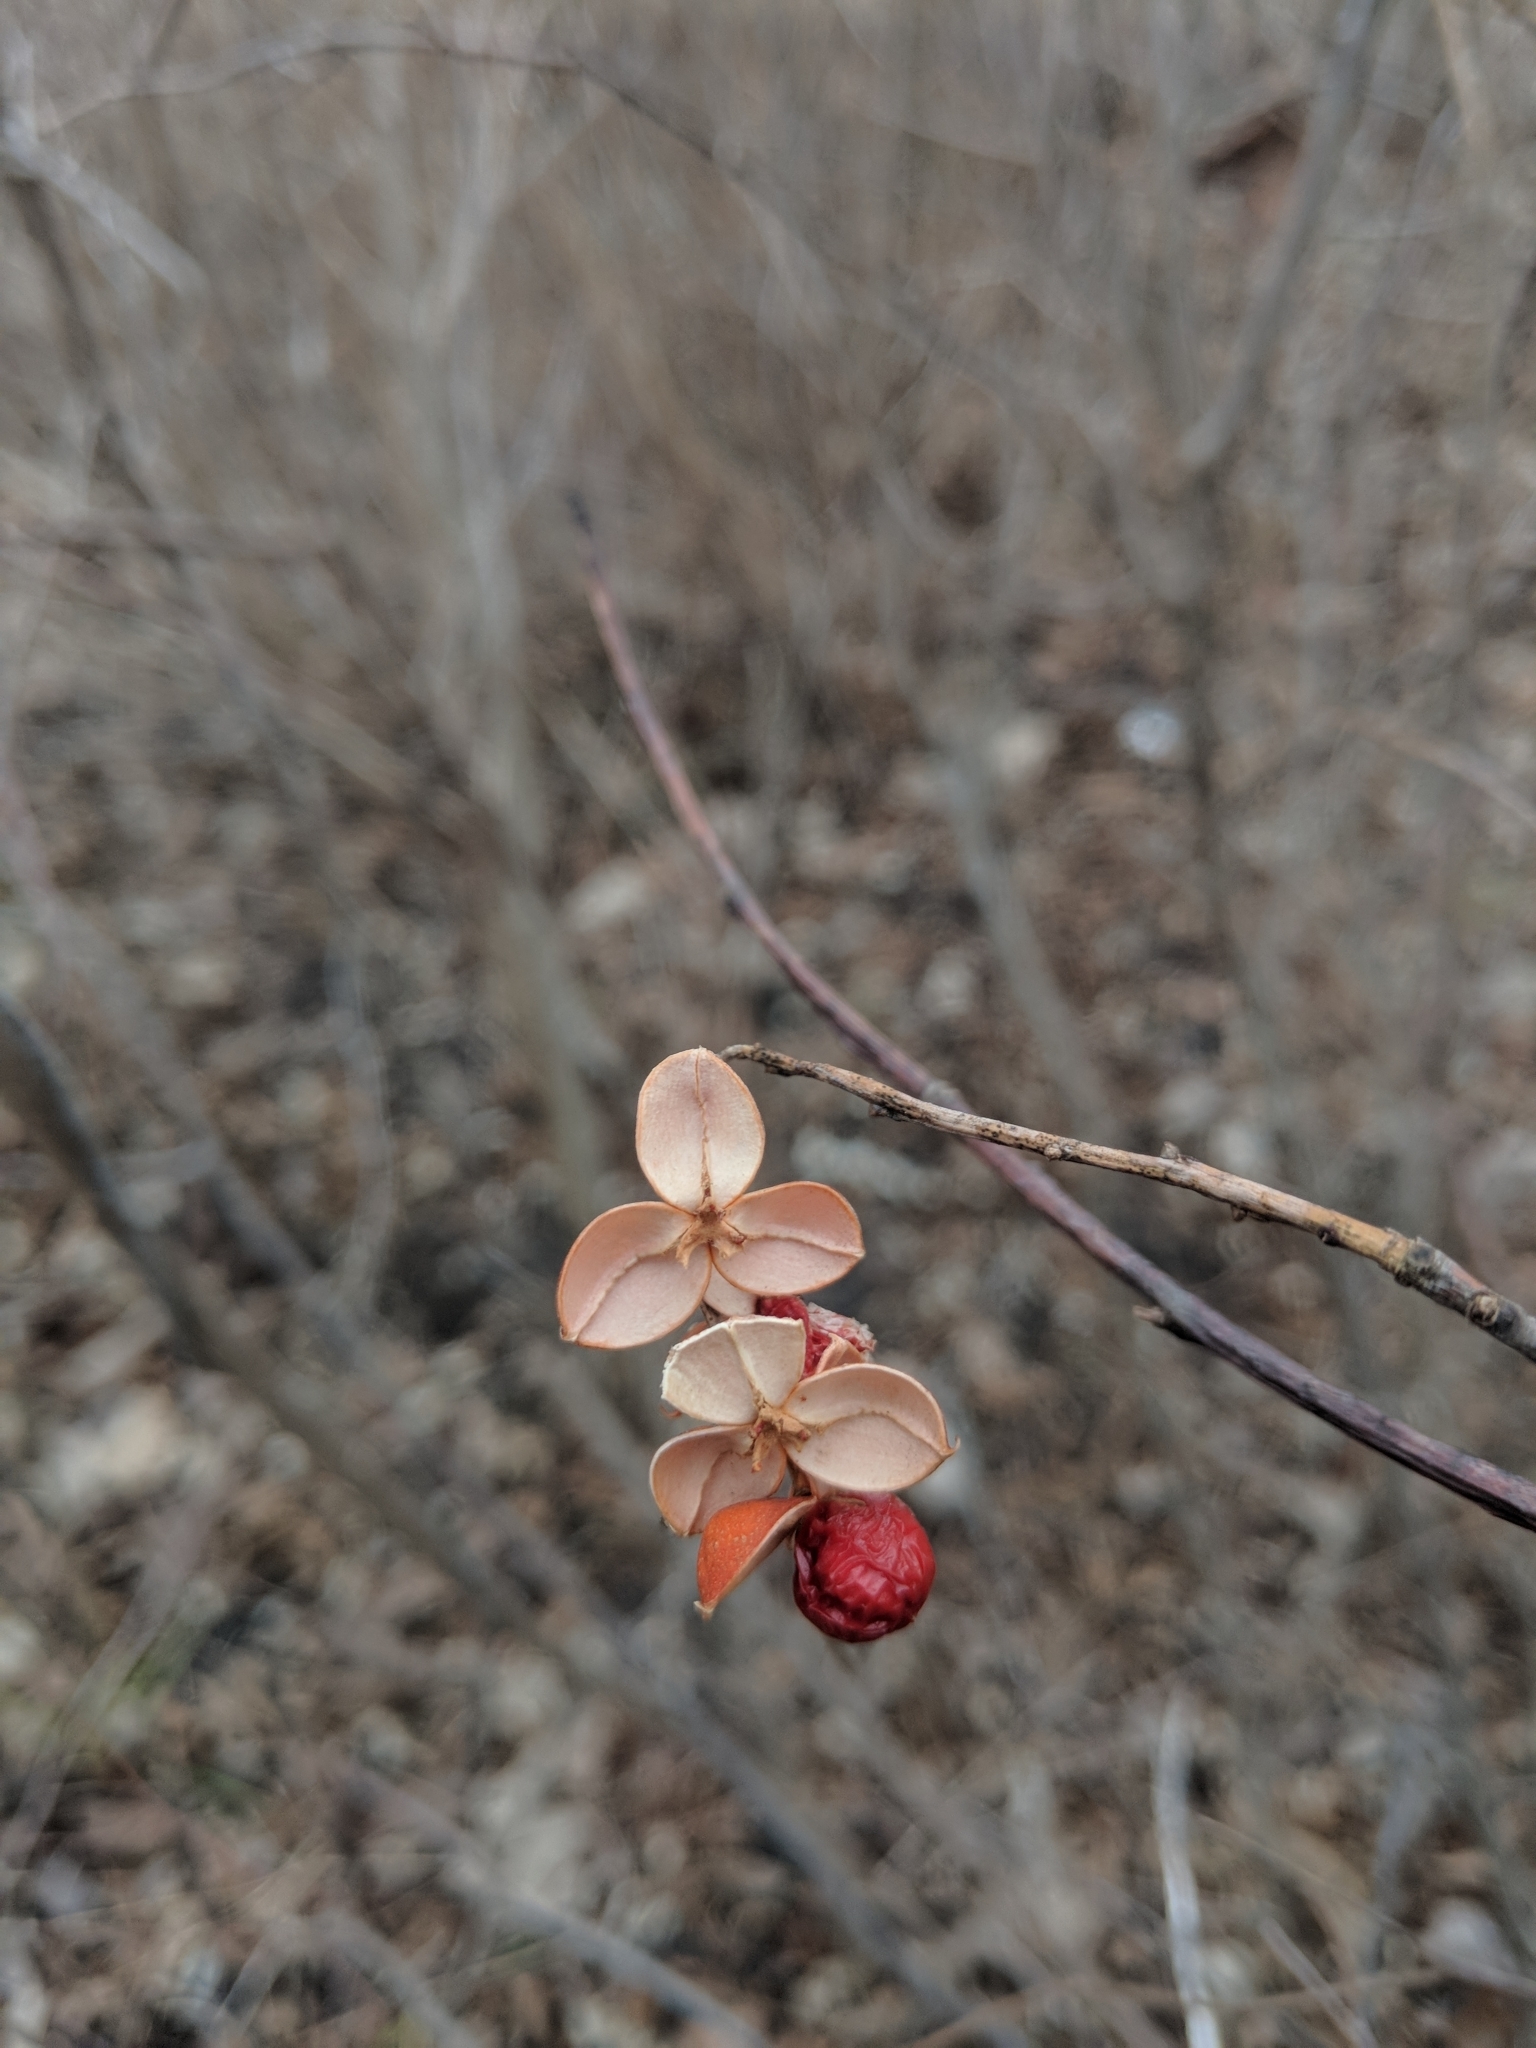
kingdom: Plantae
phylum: Tracheophyta
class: Magnoliopsida
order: Celastrales
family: Celastraceae
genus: Celastrus
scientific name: Celastrus scandens
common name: American bittersweet
